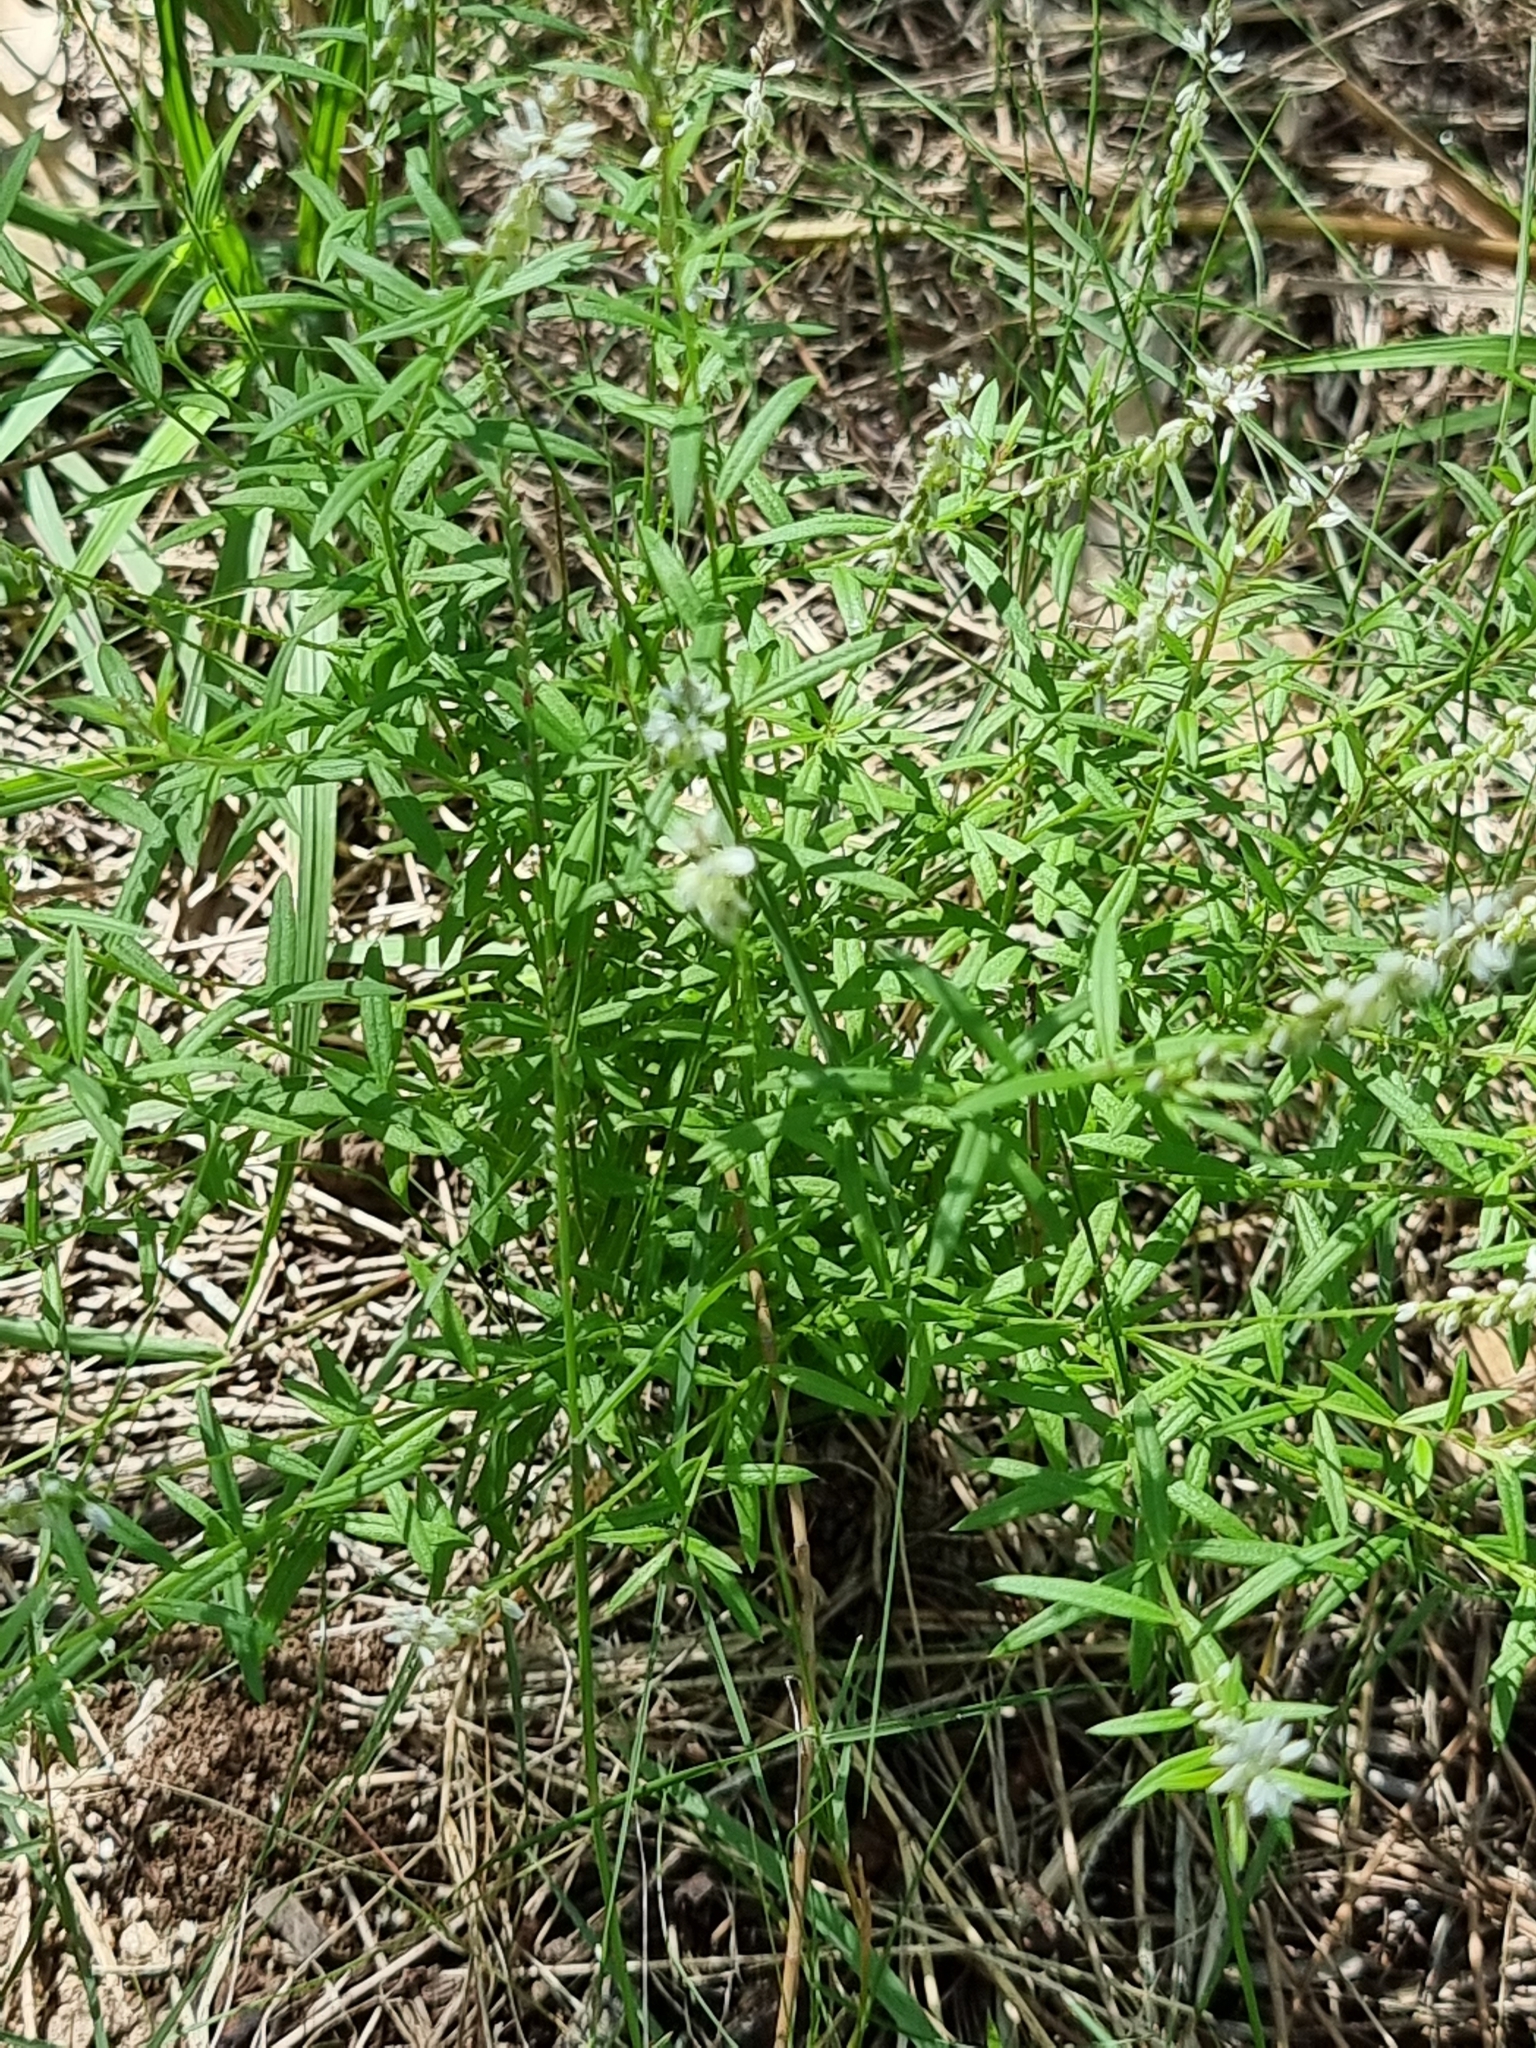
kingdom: Plantae
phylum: Tracheophyta
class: Magnoliopsida
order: Fabales
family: Polygalaceae
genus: Polygala
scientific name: Polygala paniculata
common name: Orosne
